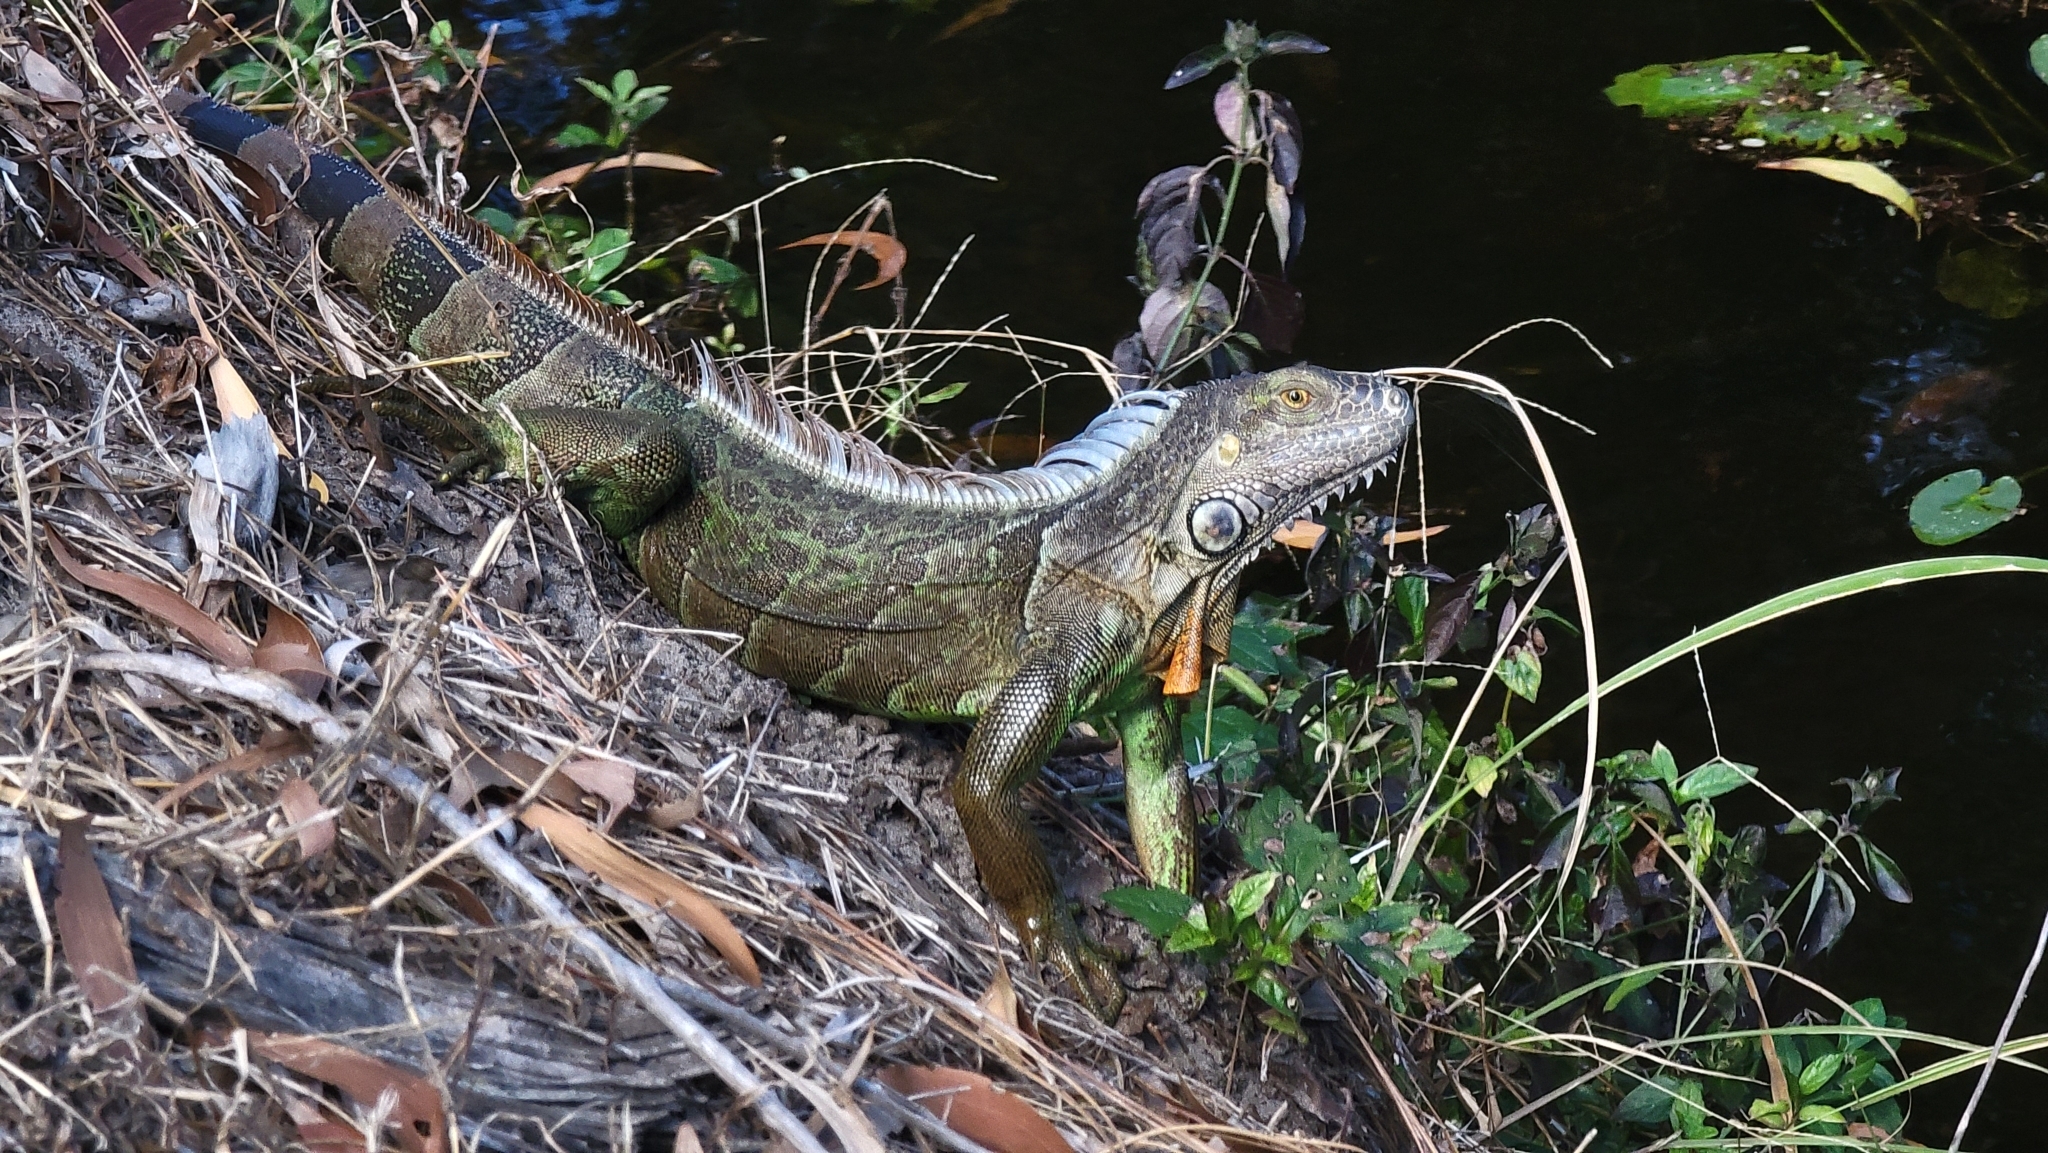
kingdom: Animalia
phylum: Chordata
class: Squamata
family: Iguanidae
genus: Iguana
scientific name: Iguana iguana
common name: Green iguana
